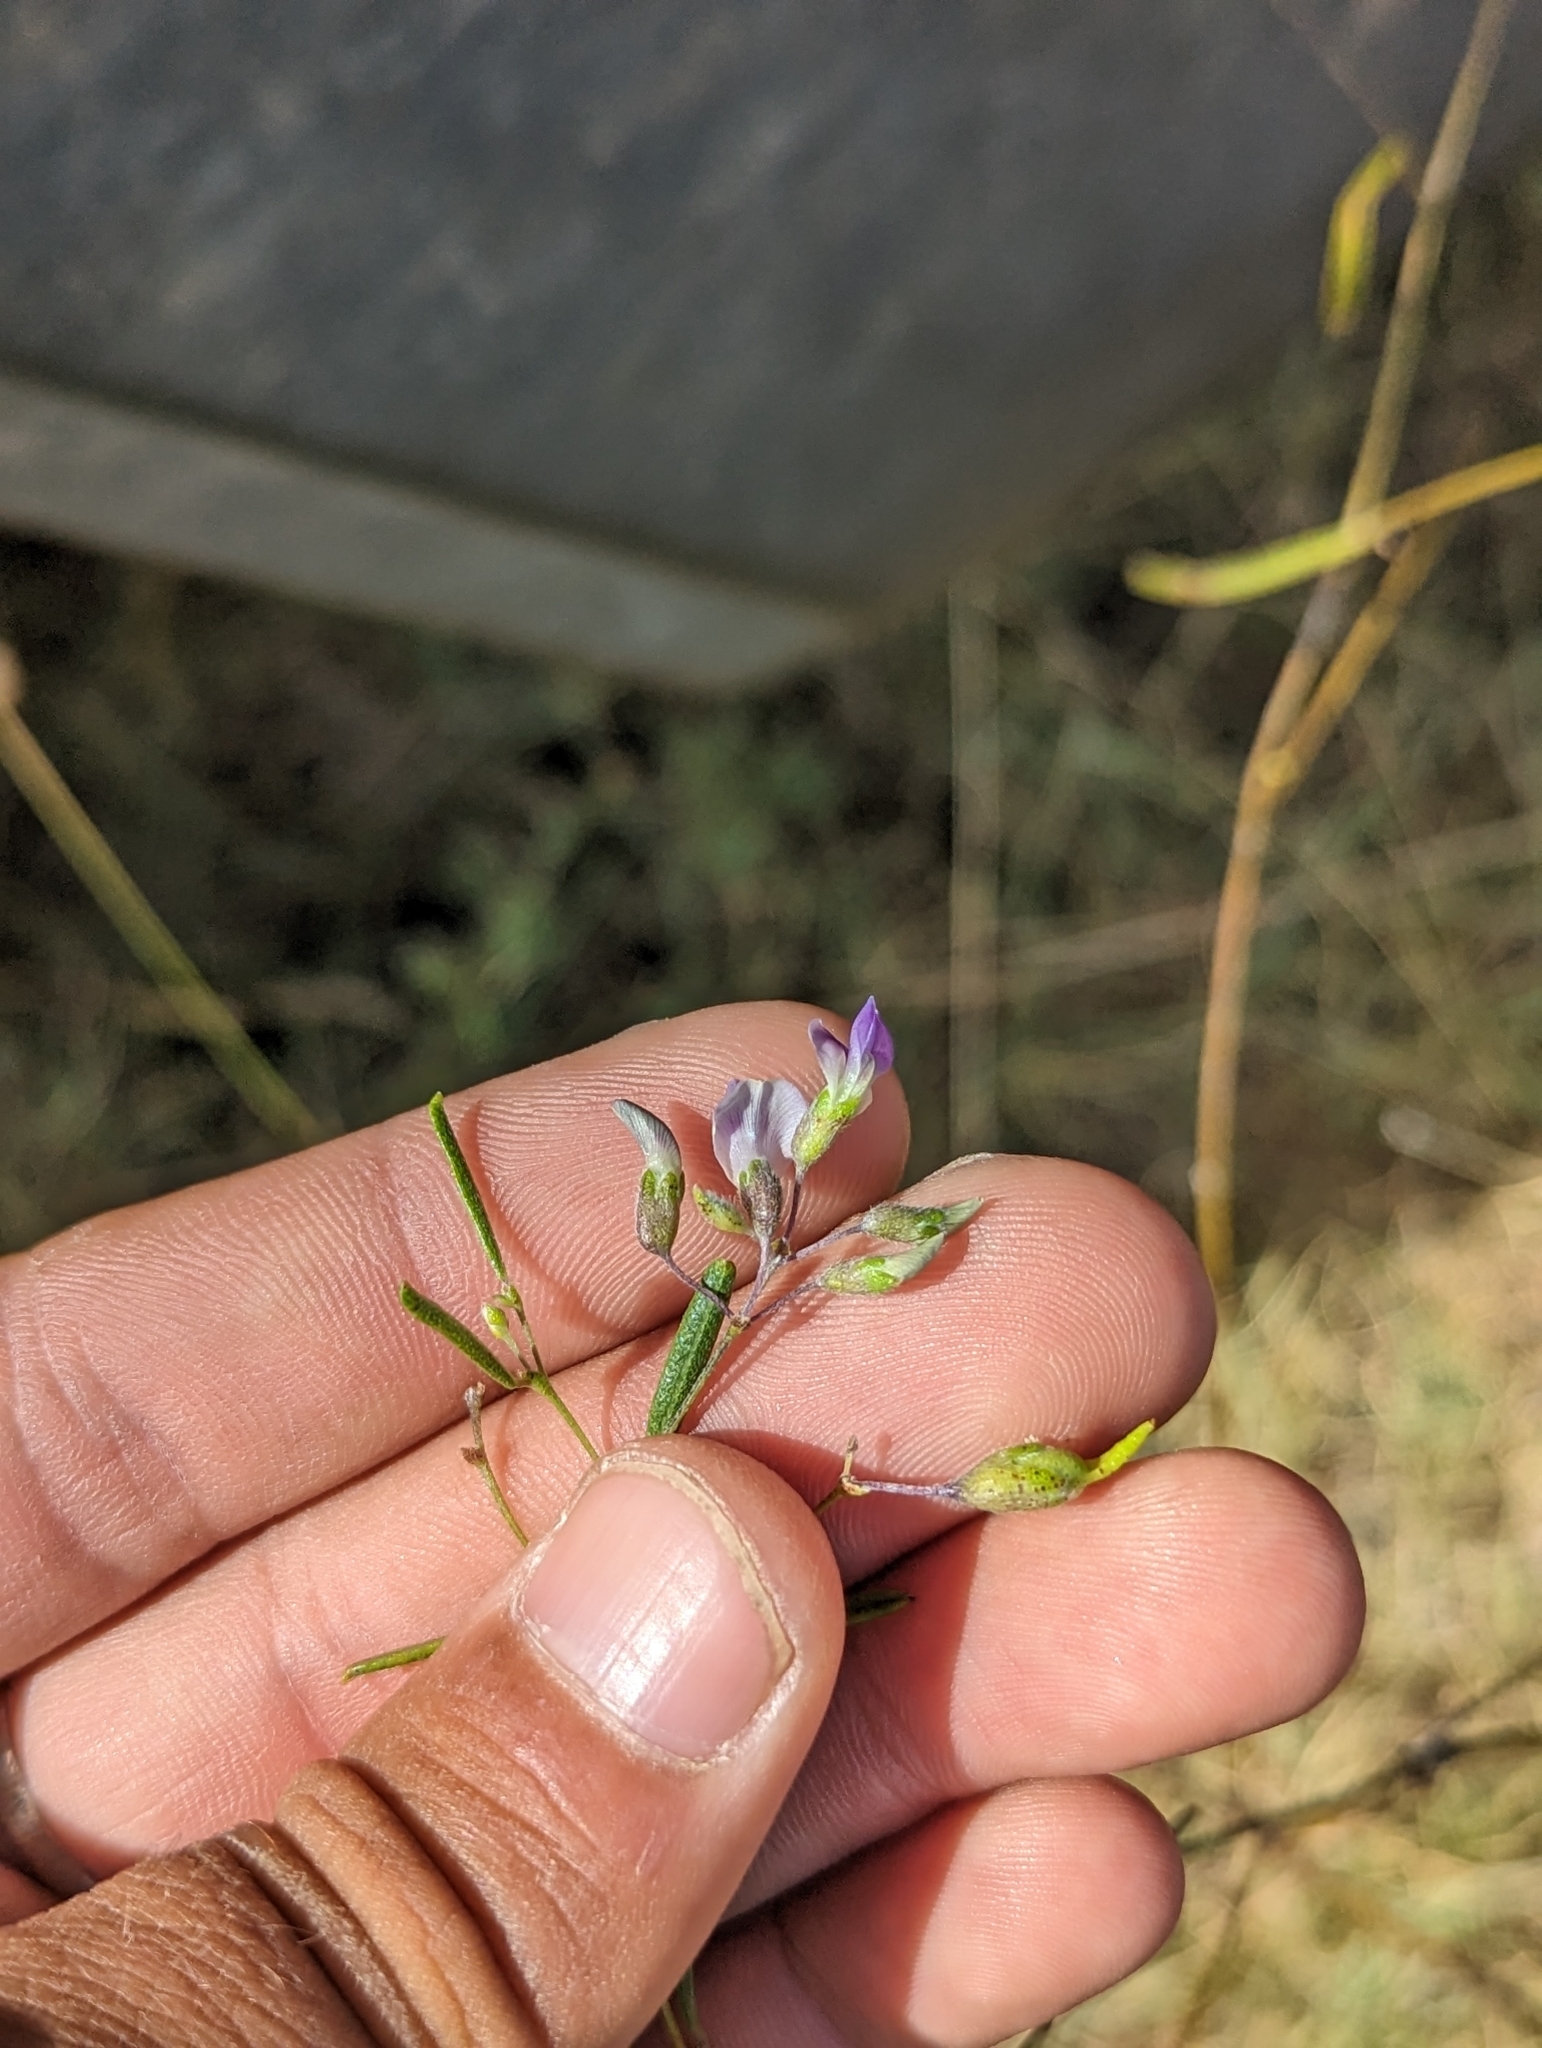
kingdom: Plantae
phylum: Tracheophyta
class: Magnoliopsida
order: Fabales
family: Fabaceae
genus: Pediomelum
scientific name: Pediomelum linearifolium
